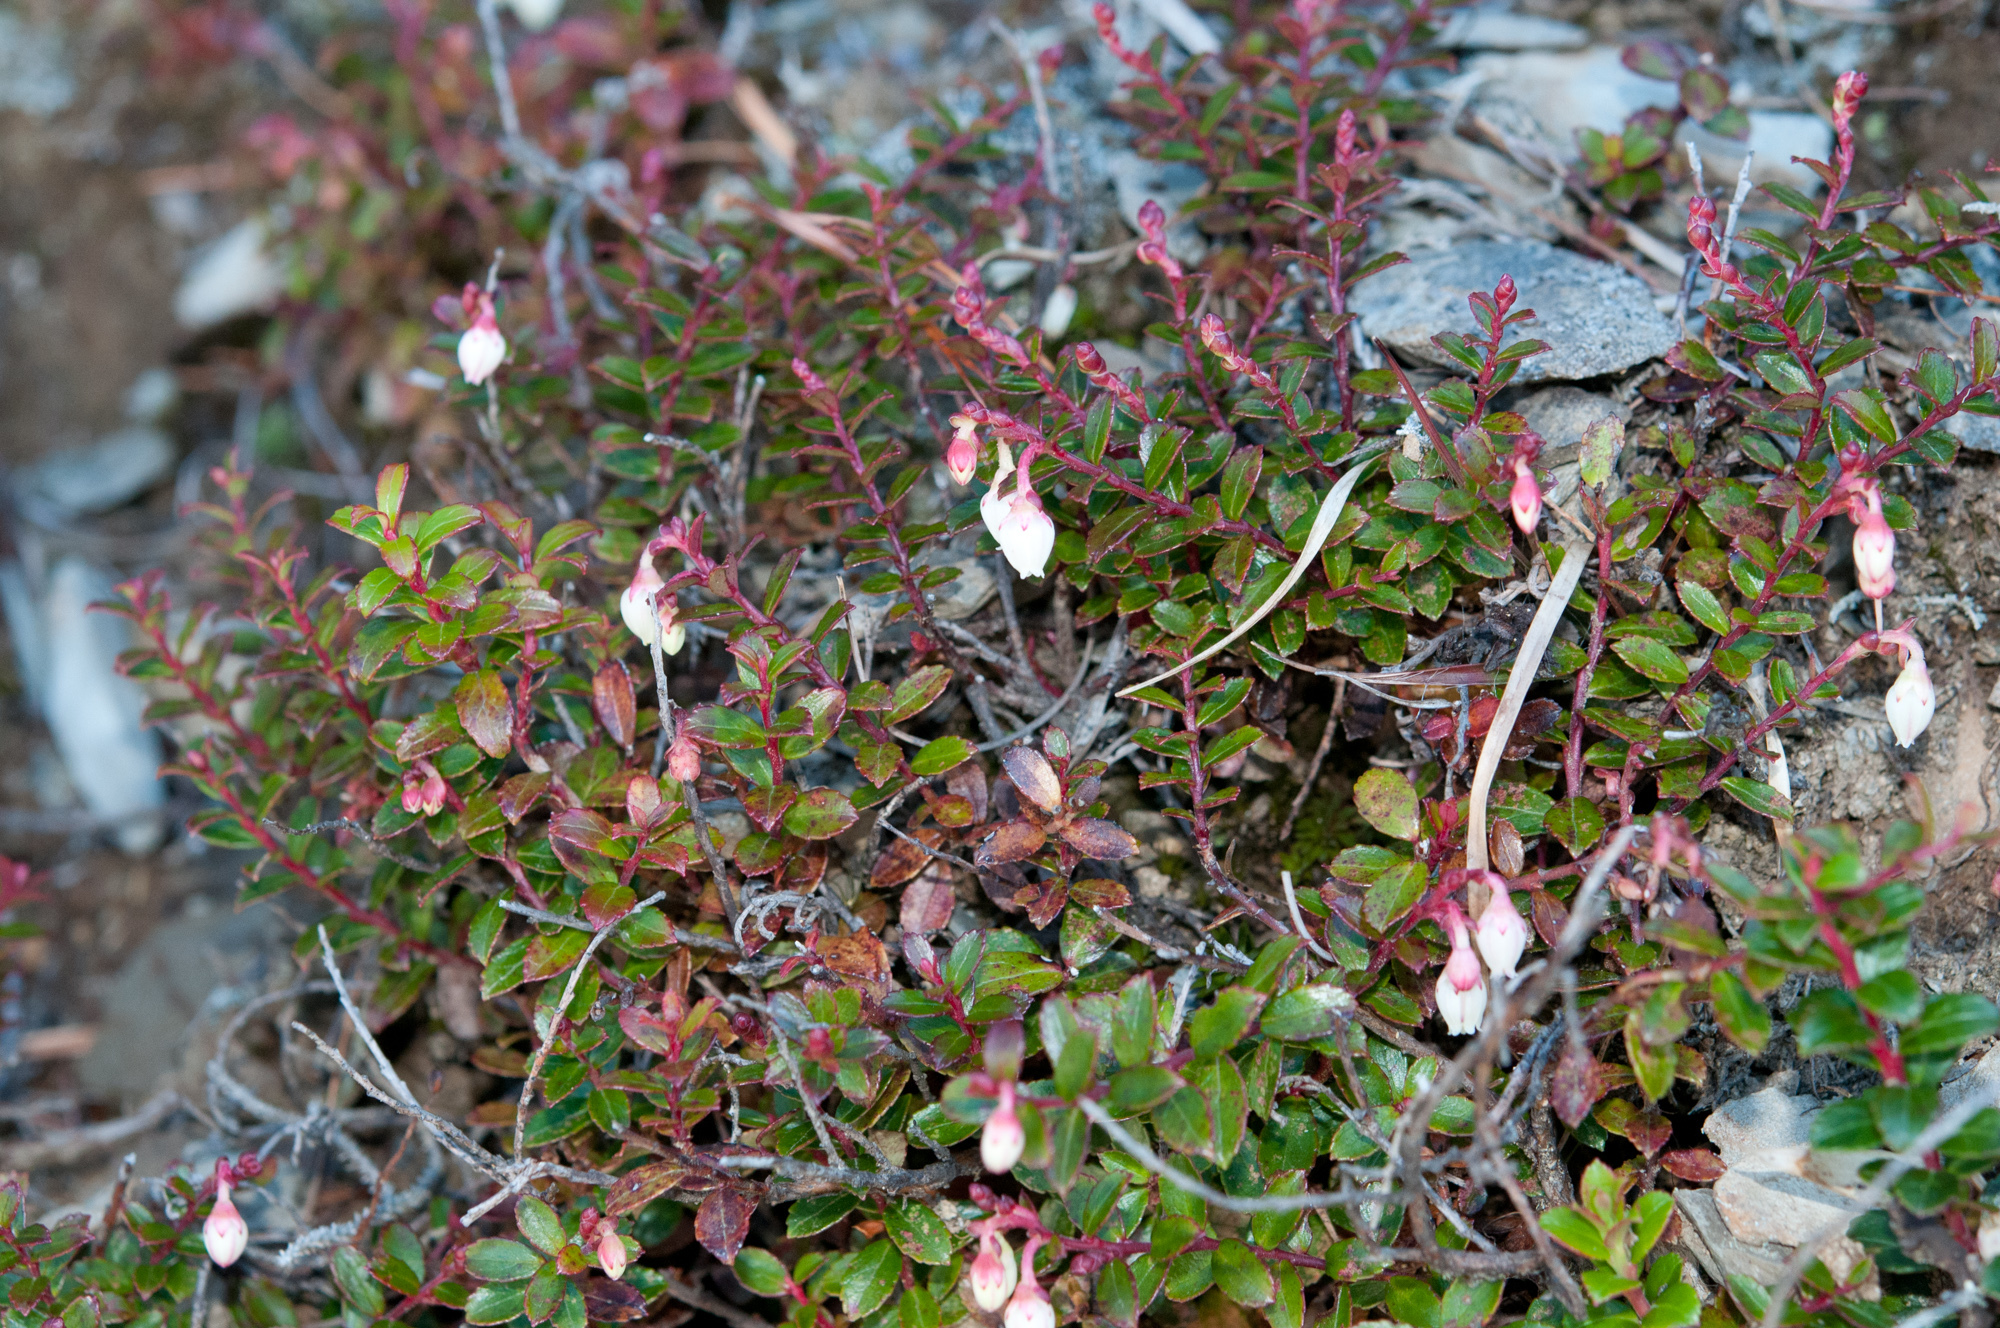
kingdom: Plantae
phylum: Tracheophyta
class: Magnoliopsida
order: Ericales
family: Ericaceae
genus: Gaultheria
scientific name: Gaultheria borneensis
